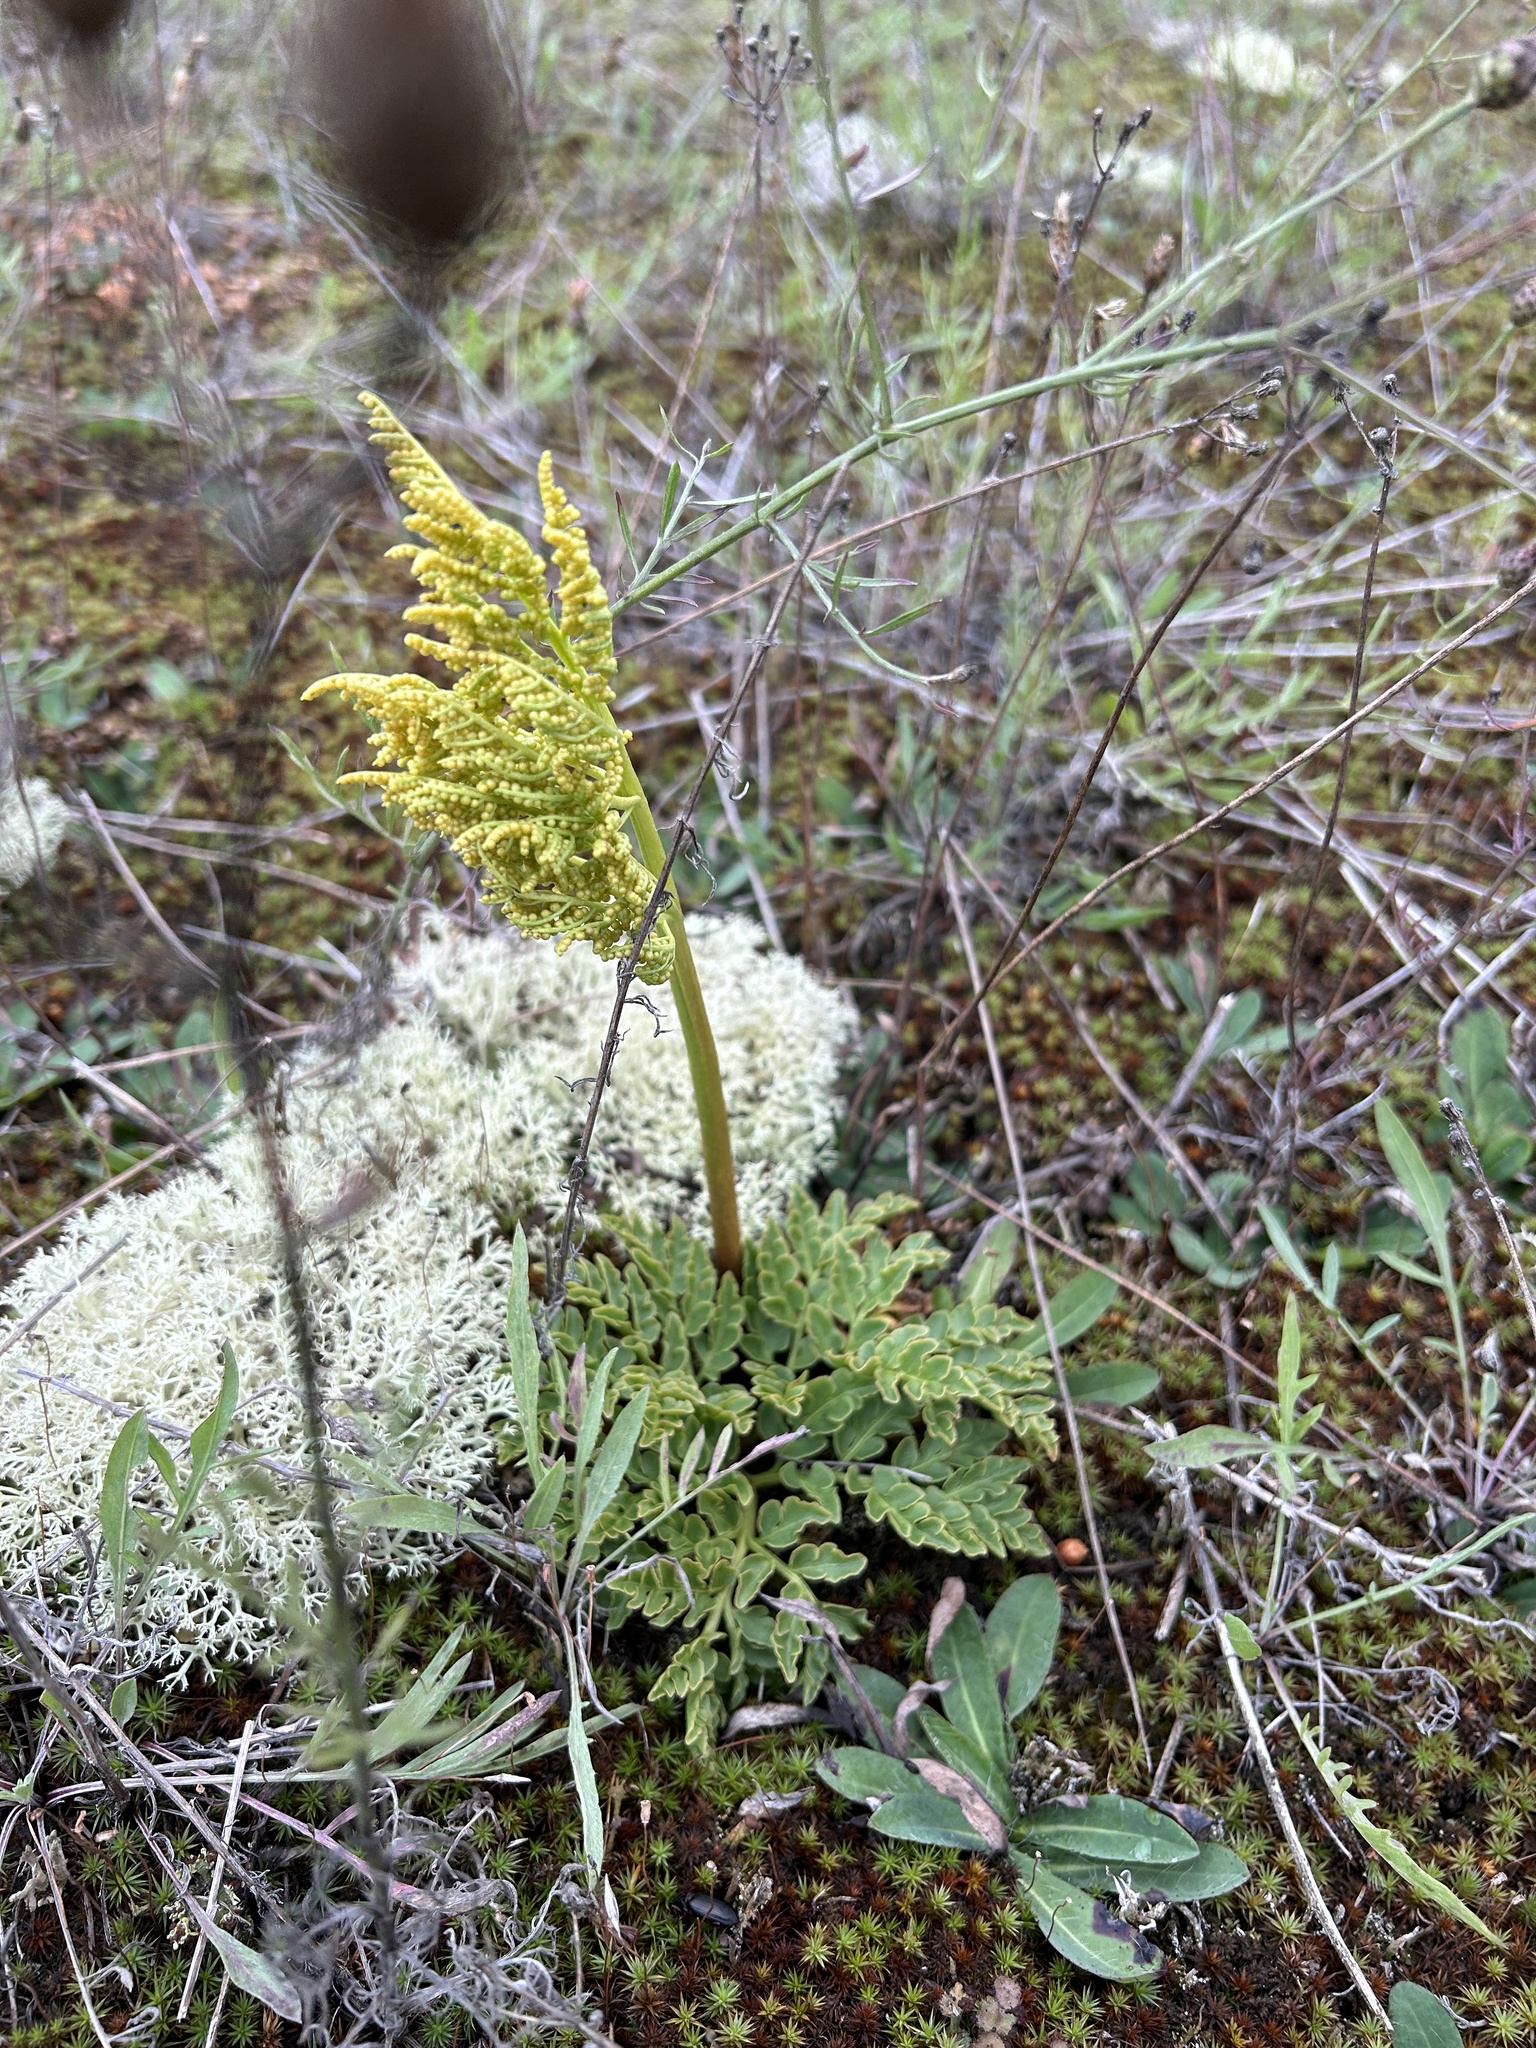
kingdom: Plantae
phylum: Tracheophyta
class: Polypodiopsida
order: Ophioglossales
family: Ophioglossaceae
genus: Sceptridium
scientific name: Sceptridium multifidum
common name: Leathery grape fern
